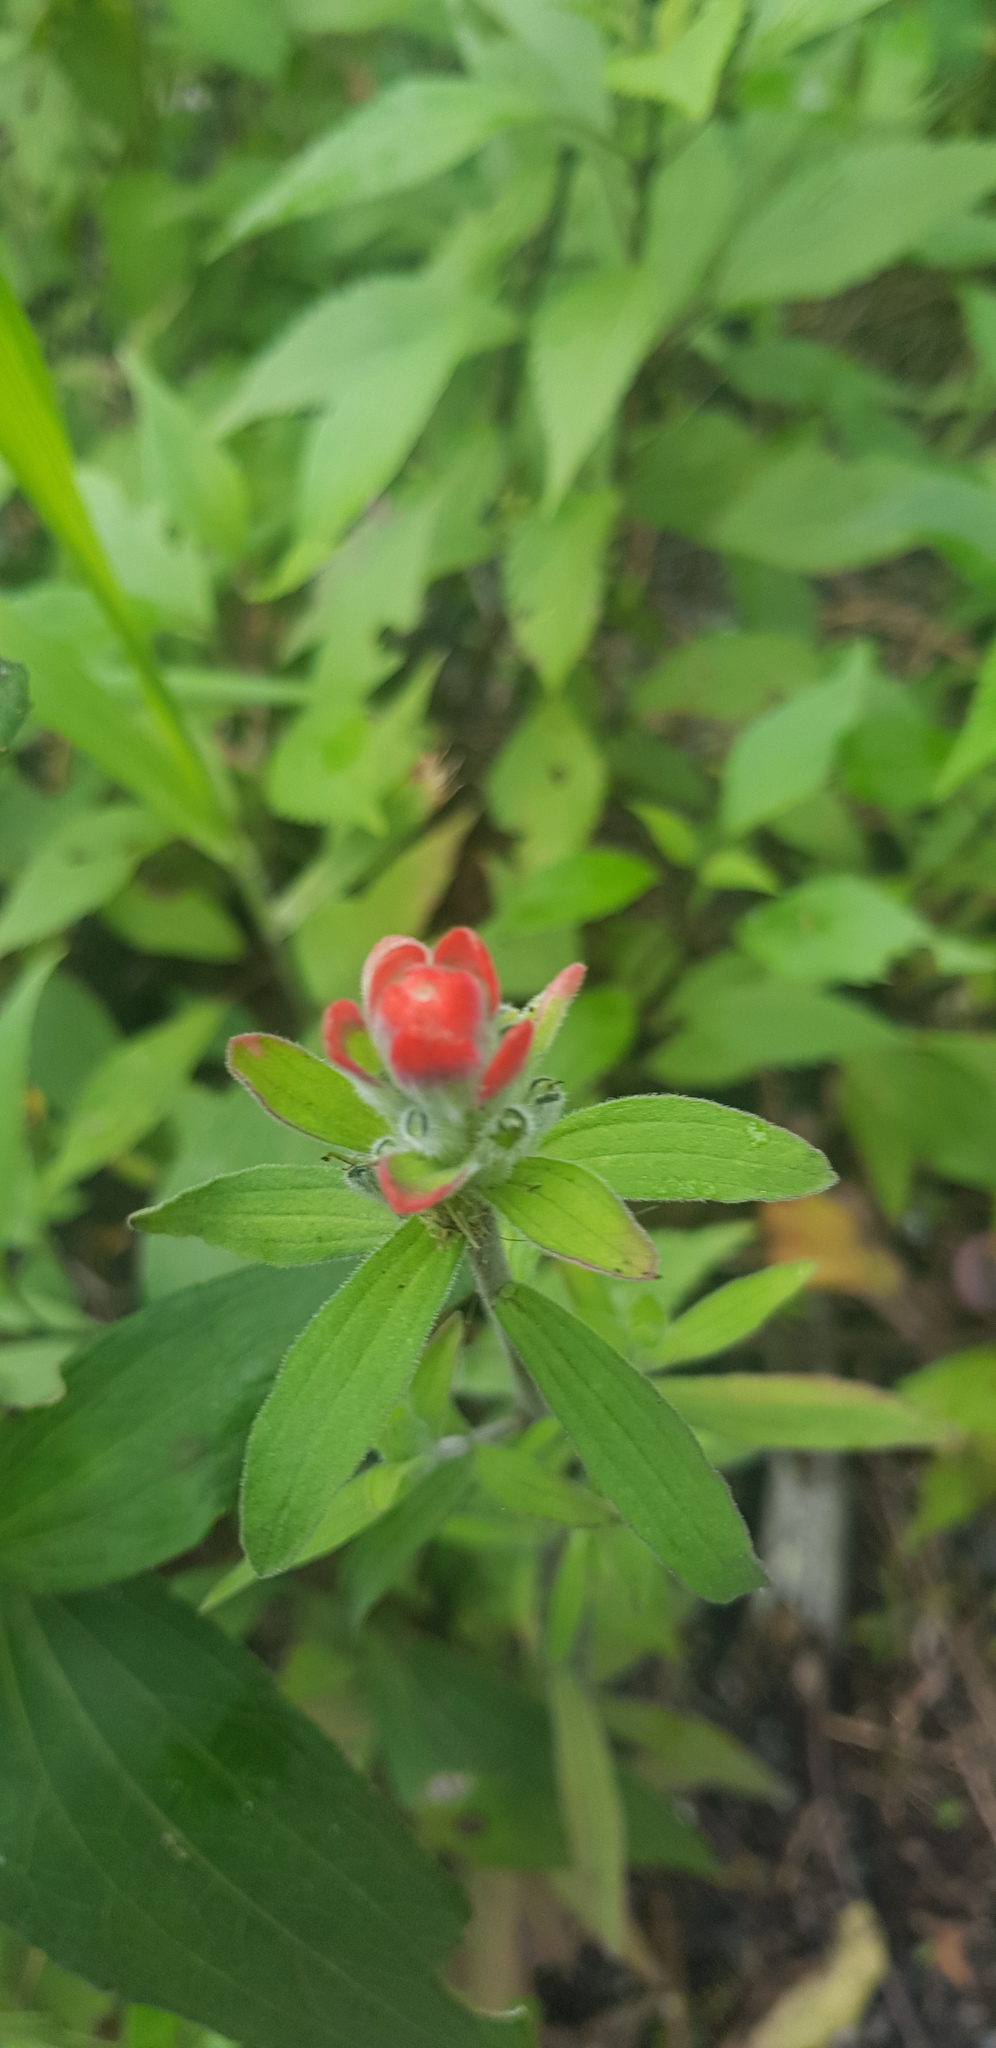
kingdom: Plantae
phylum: Tracheophyta
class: Magnoliopsida
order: Lamiales
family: Orobanchaceae
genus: Castilleja
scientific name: Castilleja arvensis
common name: Indian paintbrush
